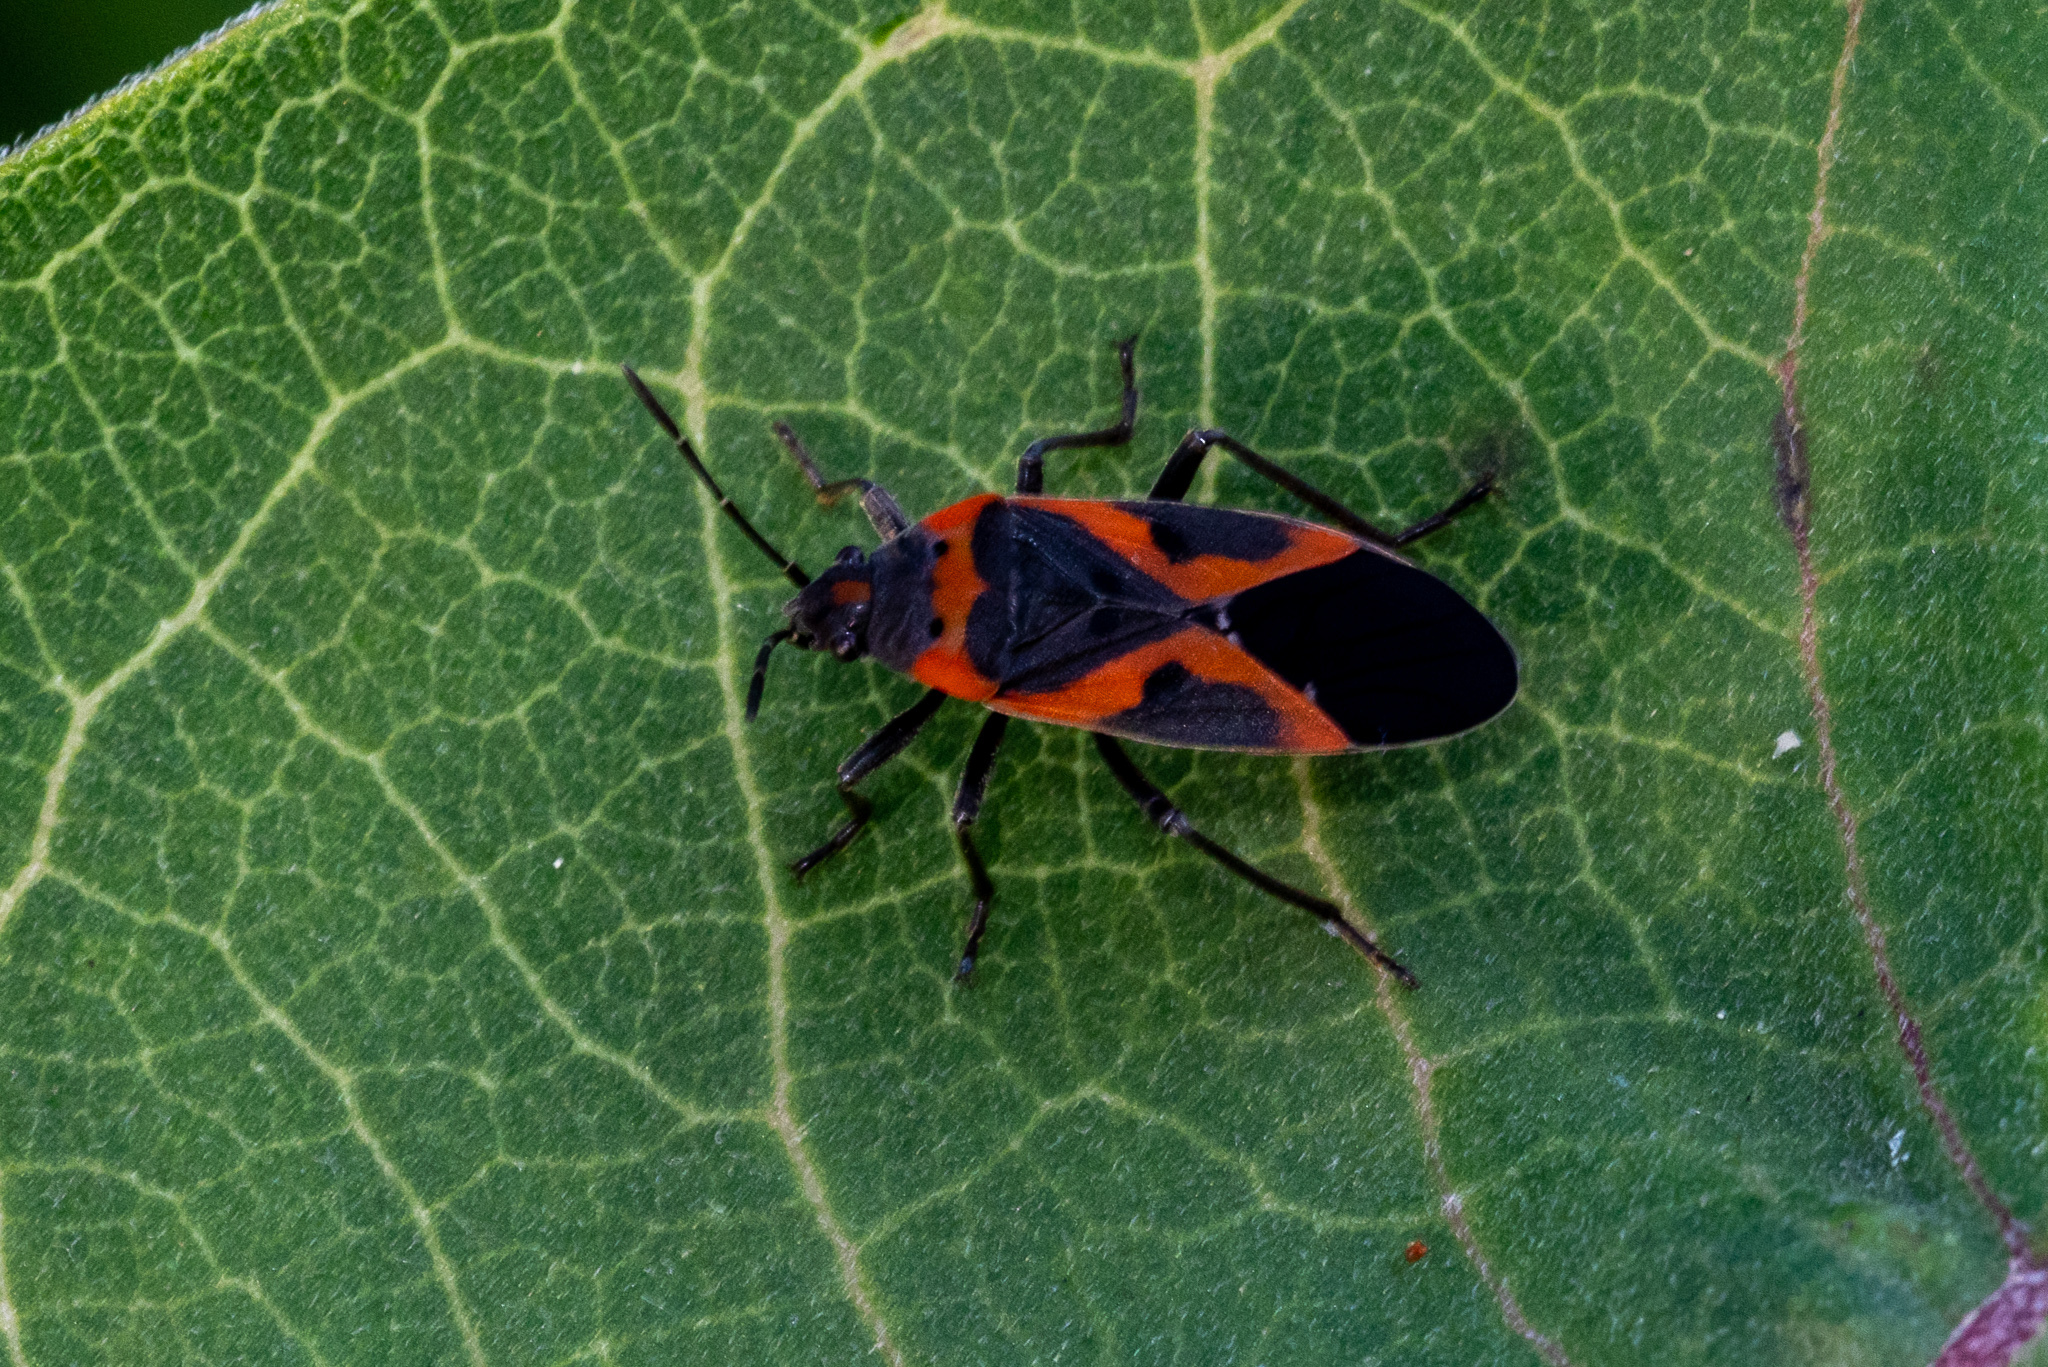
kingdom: Animalia
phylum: Arthropoda
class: Insecta
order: Hemiptera
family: Lygaeidae
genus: Lygaeus
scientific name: Lygaeus kalmii
